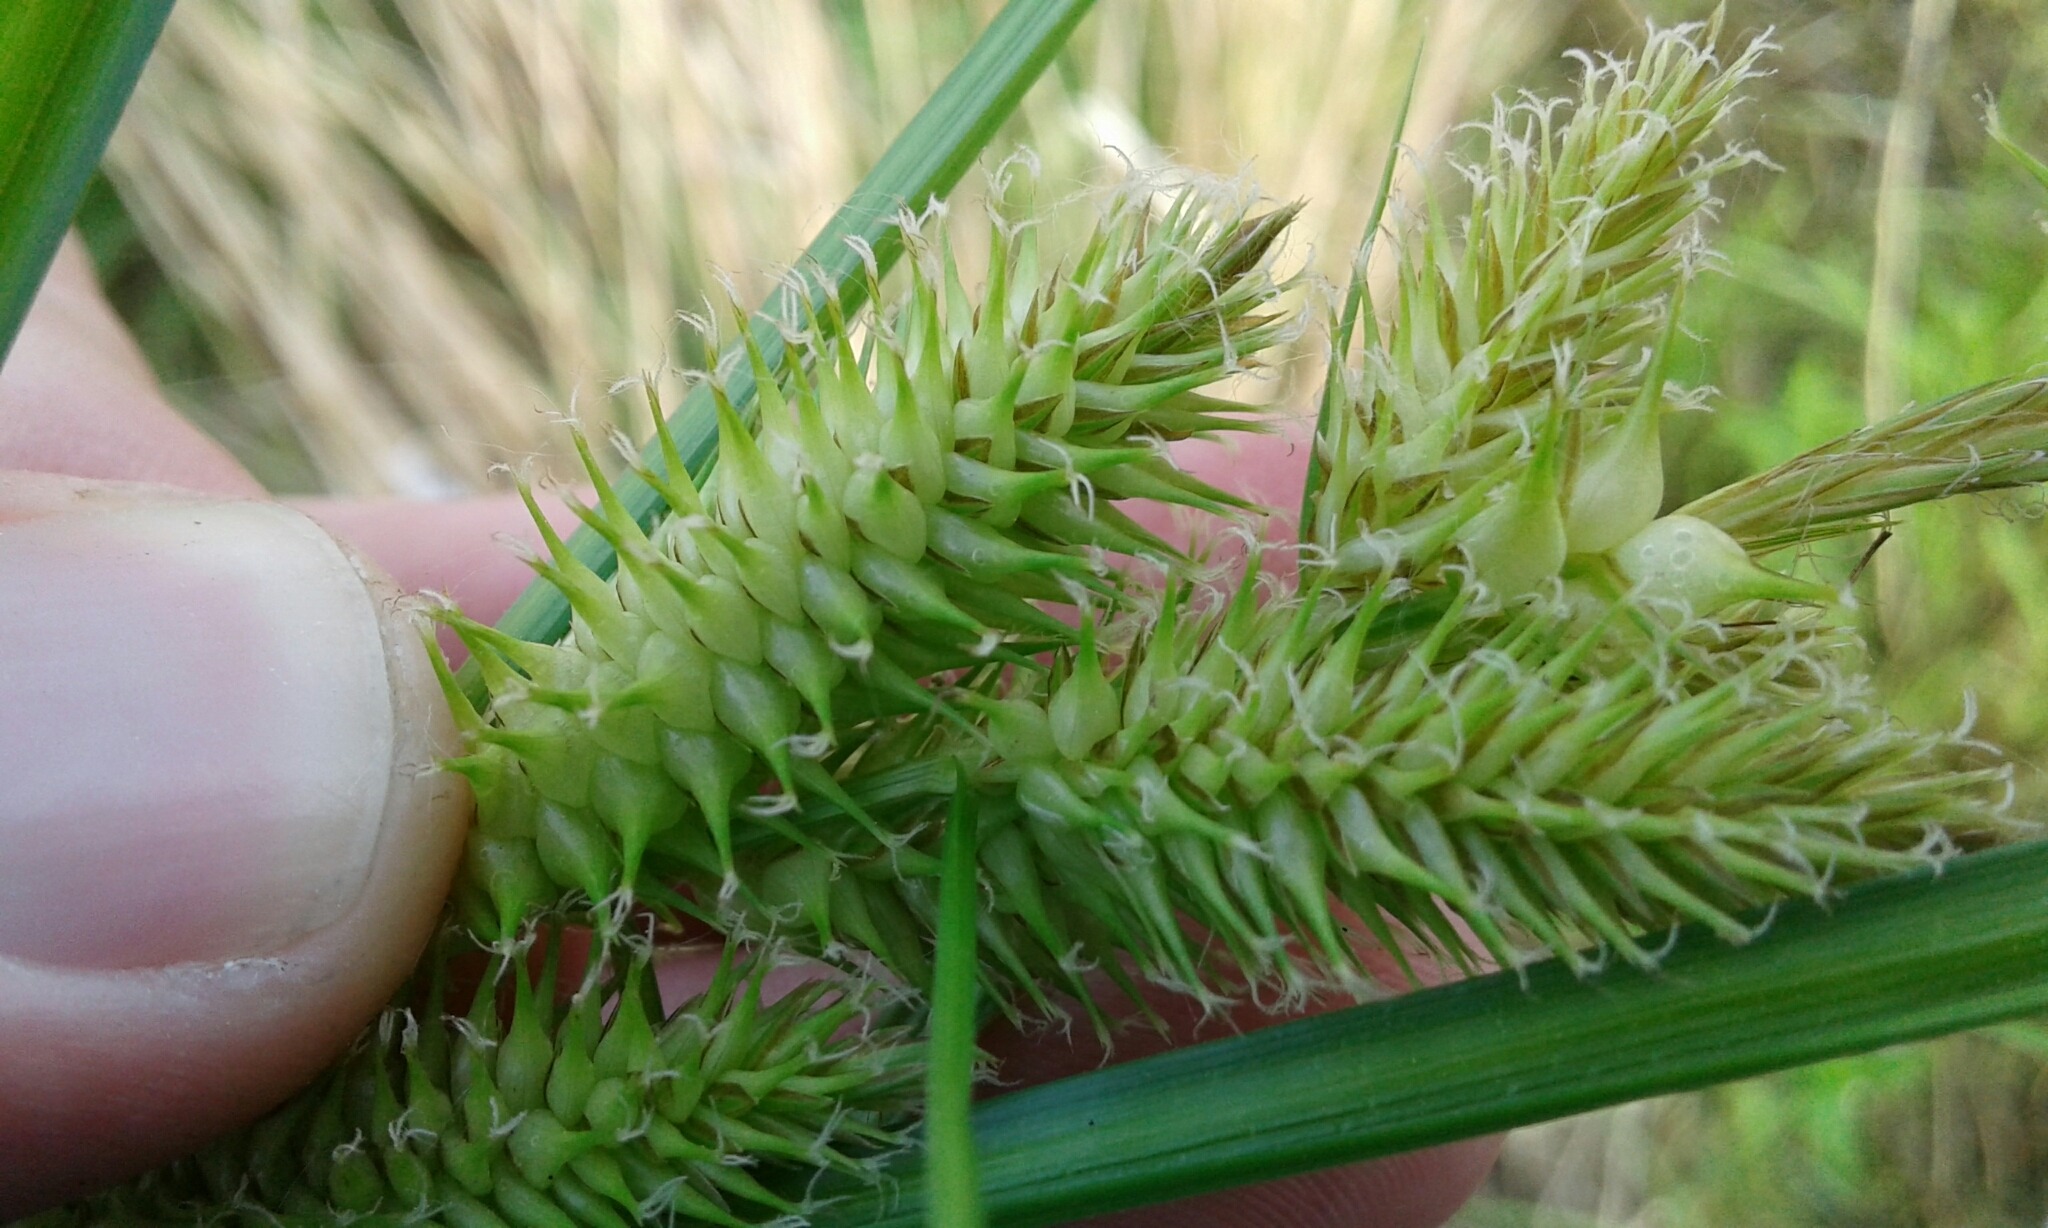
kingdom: Plantae
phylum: Tracheophyta
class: Liliopsida
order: Poales
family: Cyperaceae
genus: Carex
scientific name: Carex retrorsa
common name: Knot-sheath sedge
